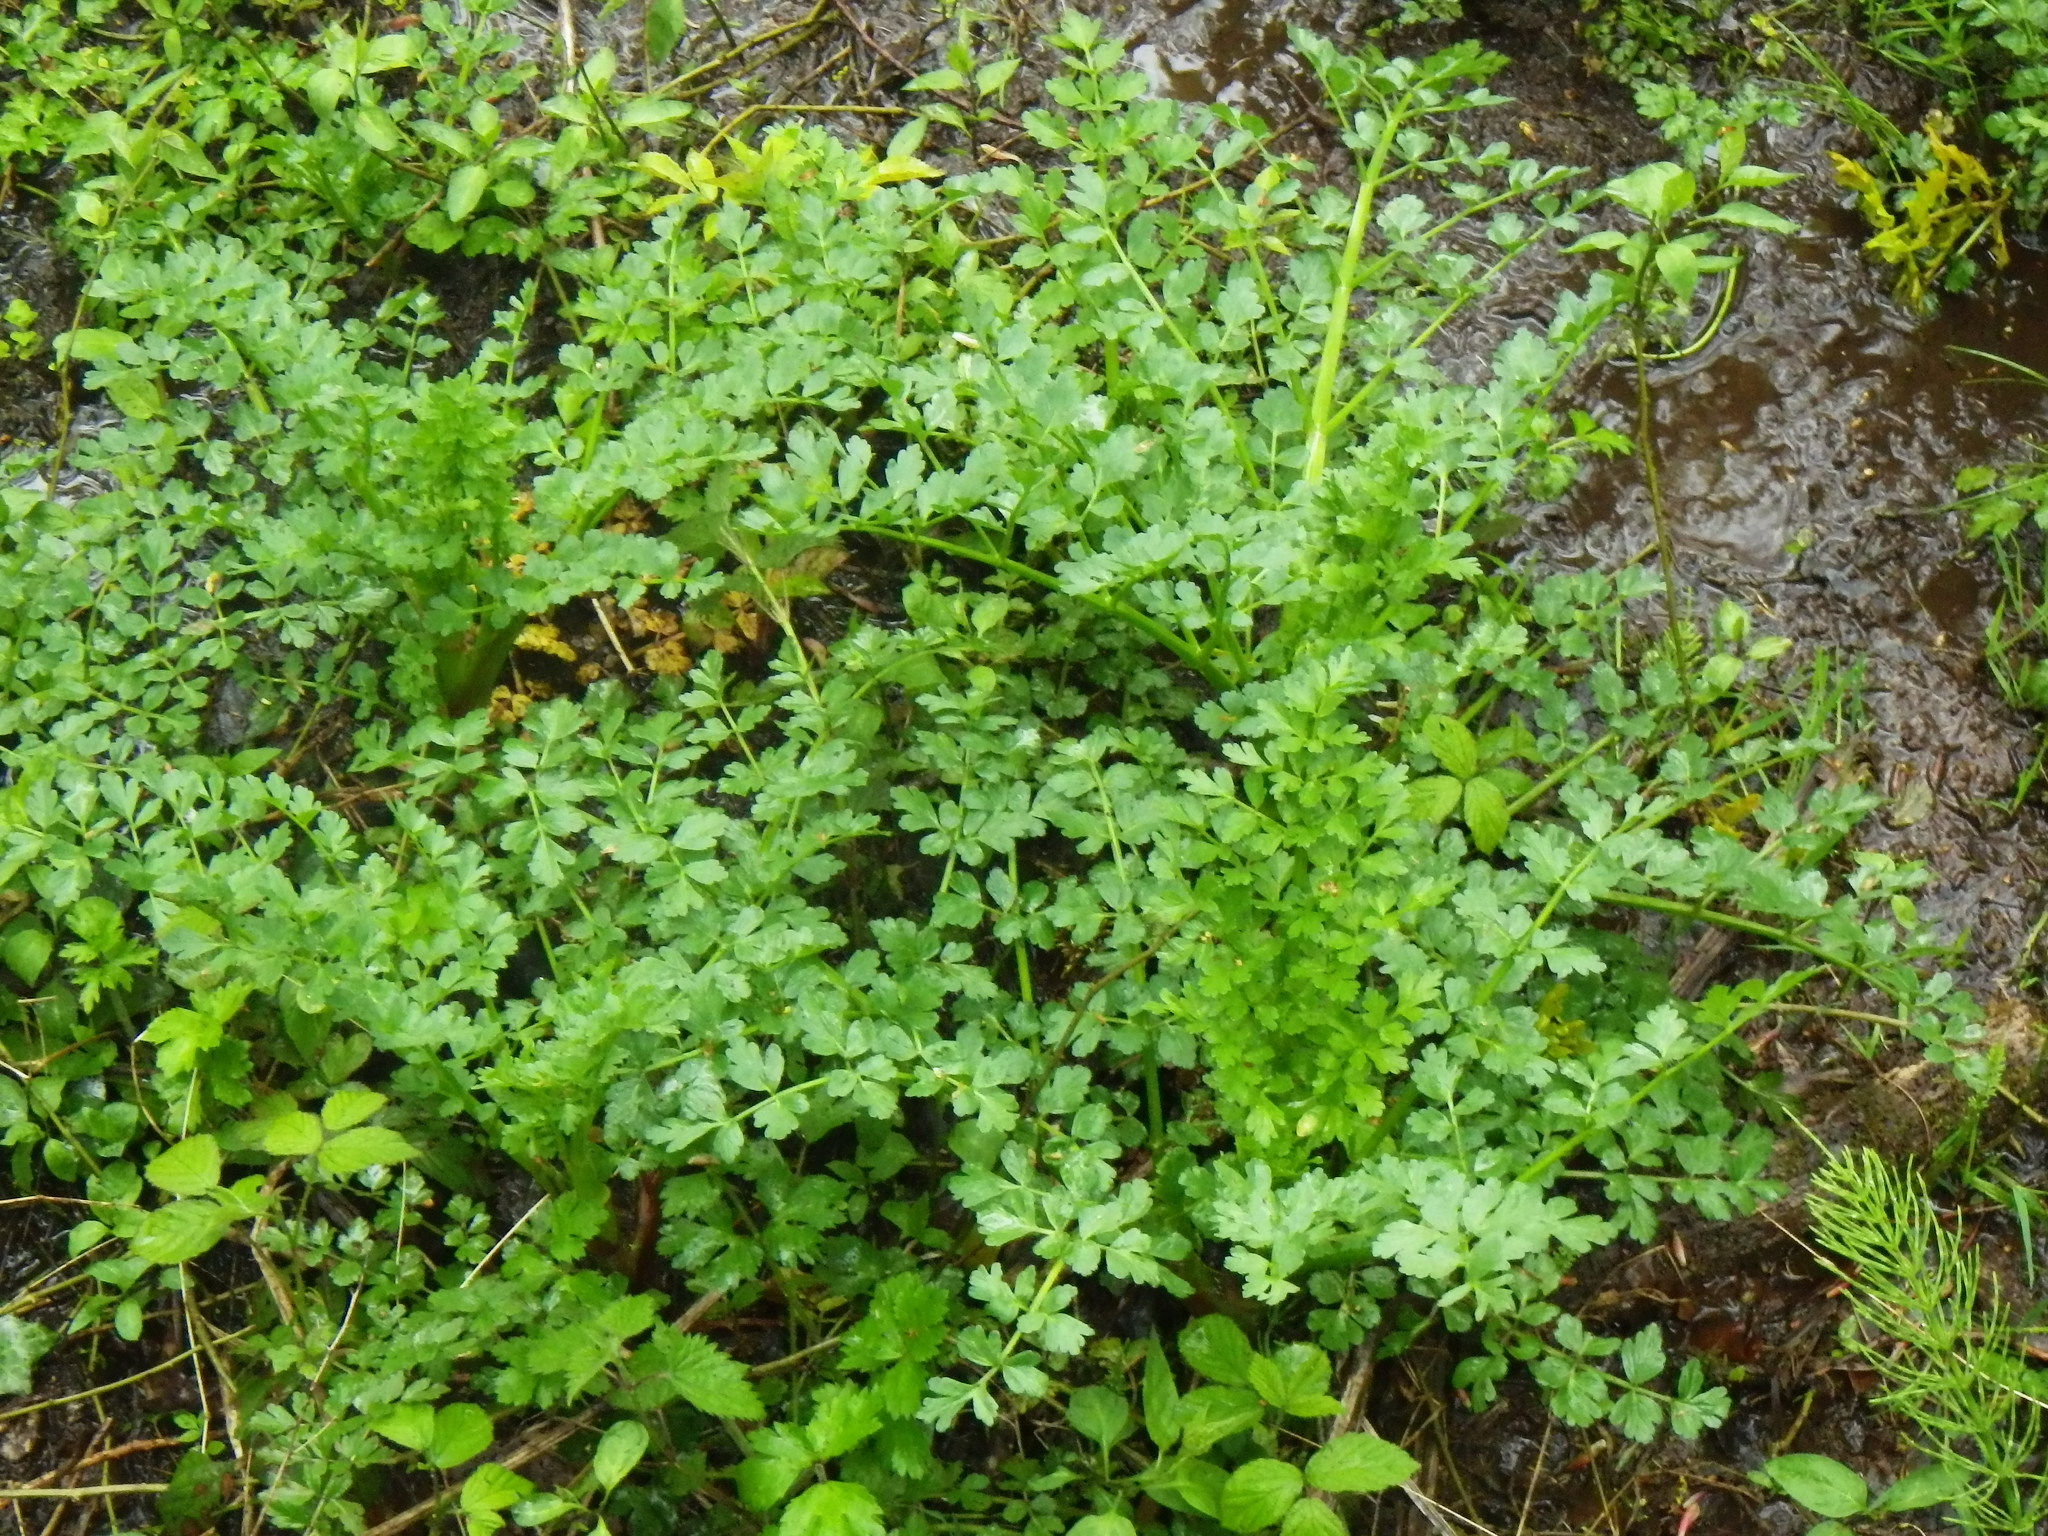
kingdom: Plantae
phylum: Tracheophyta
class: Magnoliopsida
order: Apiales
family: Apiaceae
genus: Oenanthe
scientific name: Oenanthe crocata
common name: Hemlock water-dropwort
